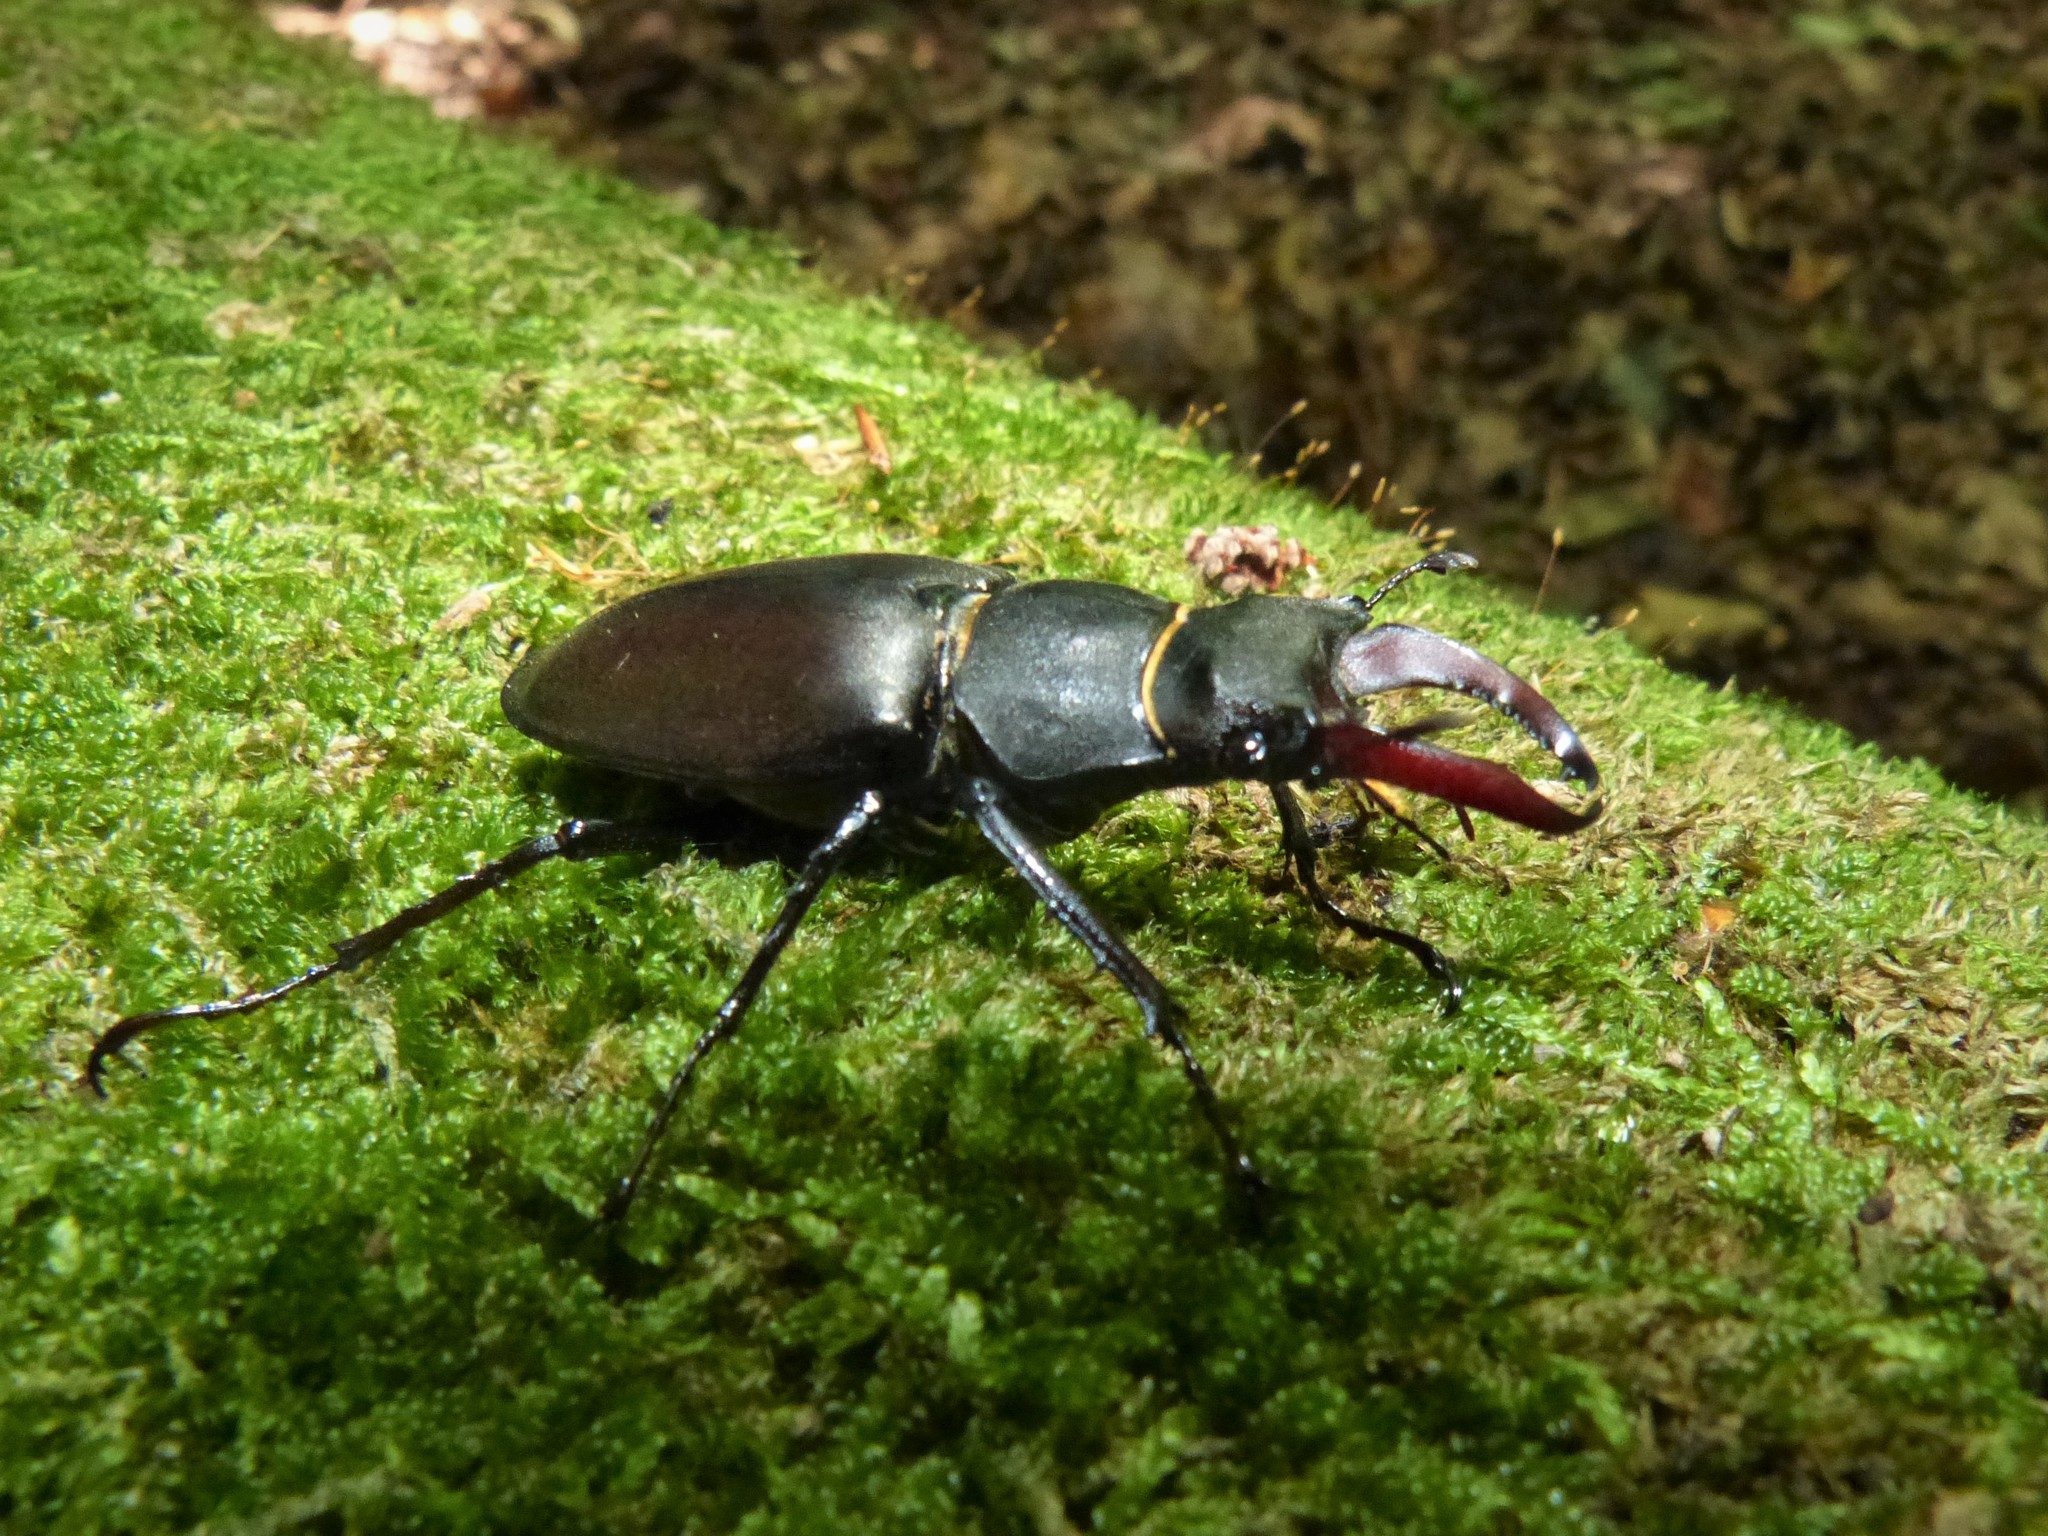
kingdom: Animalia
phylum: Arthropoda
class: Insecta
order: Coleoptera
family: Lucanidae
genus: Lucanus
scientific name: Lucanus cervus
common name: Stag beetle
